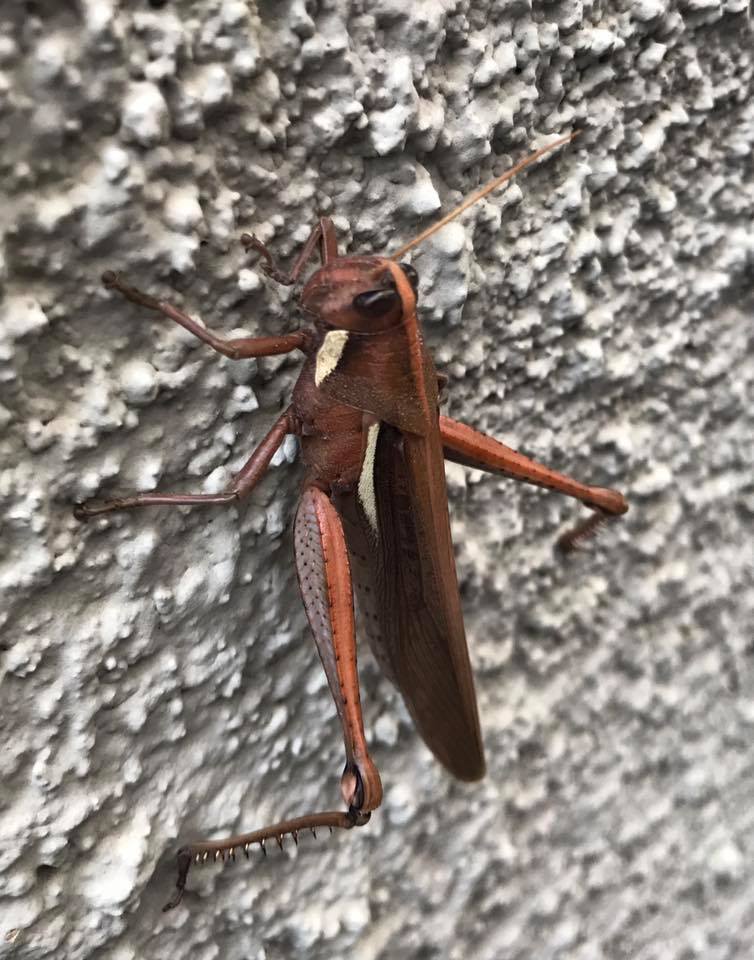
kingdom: Animalia
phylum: Arthropoda
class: Insecta
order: Orthoptera
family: Acrididae
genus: Schistocerca
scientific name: Schistocerca flavofasciata
